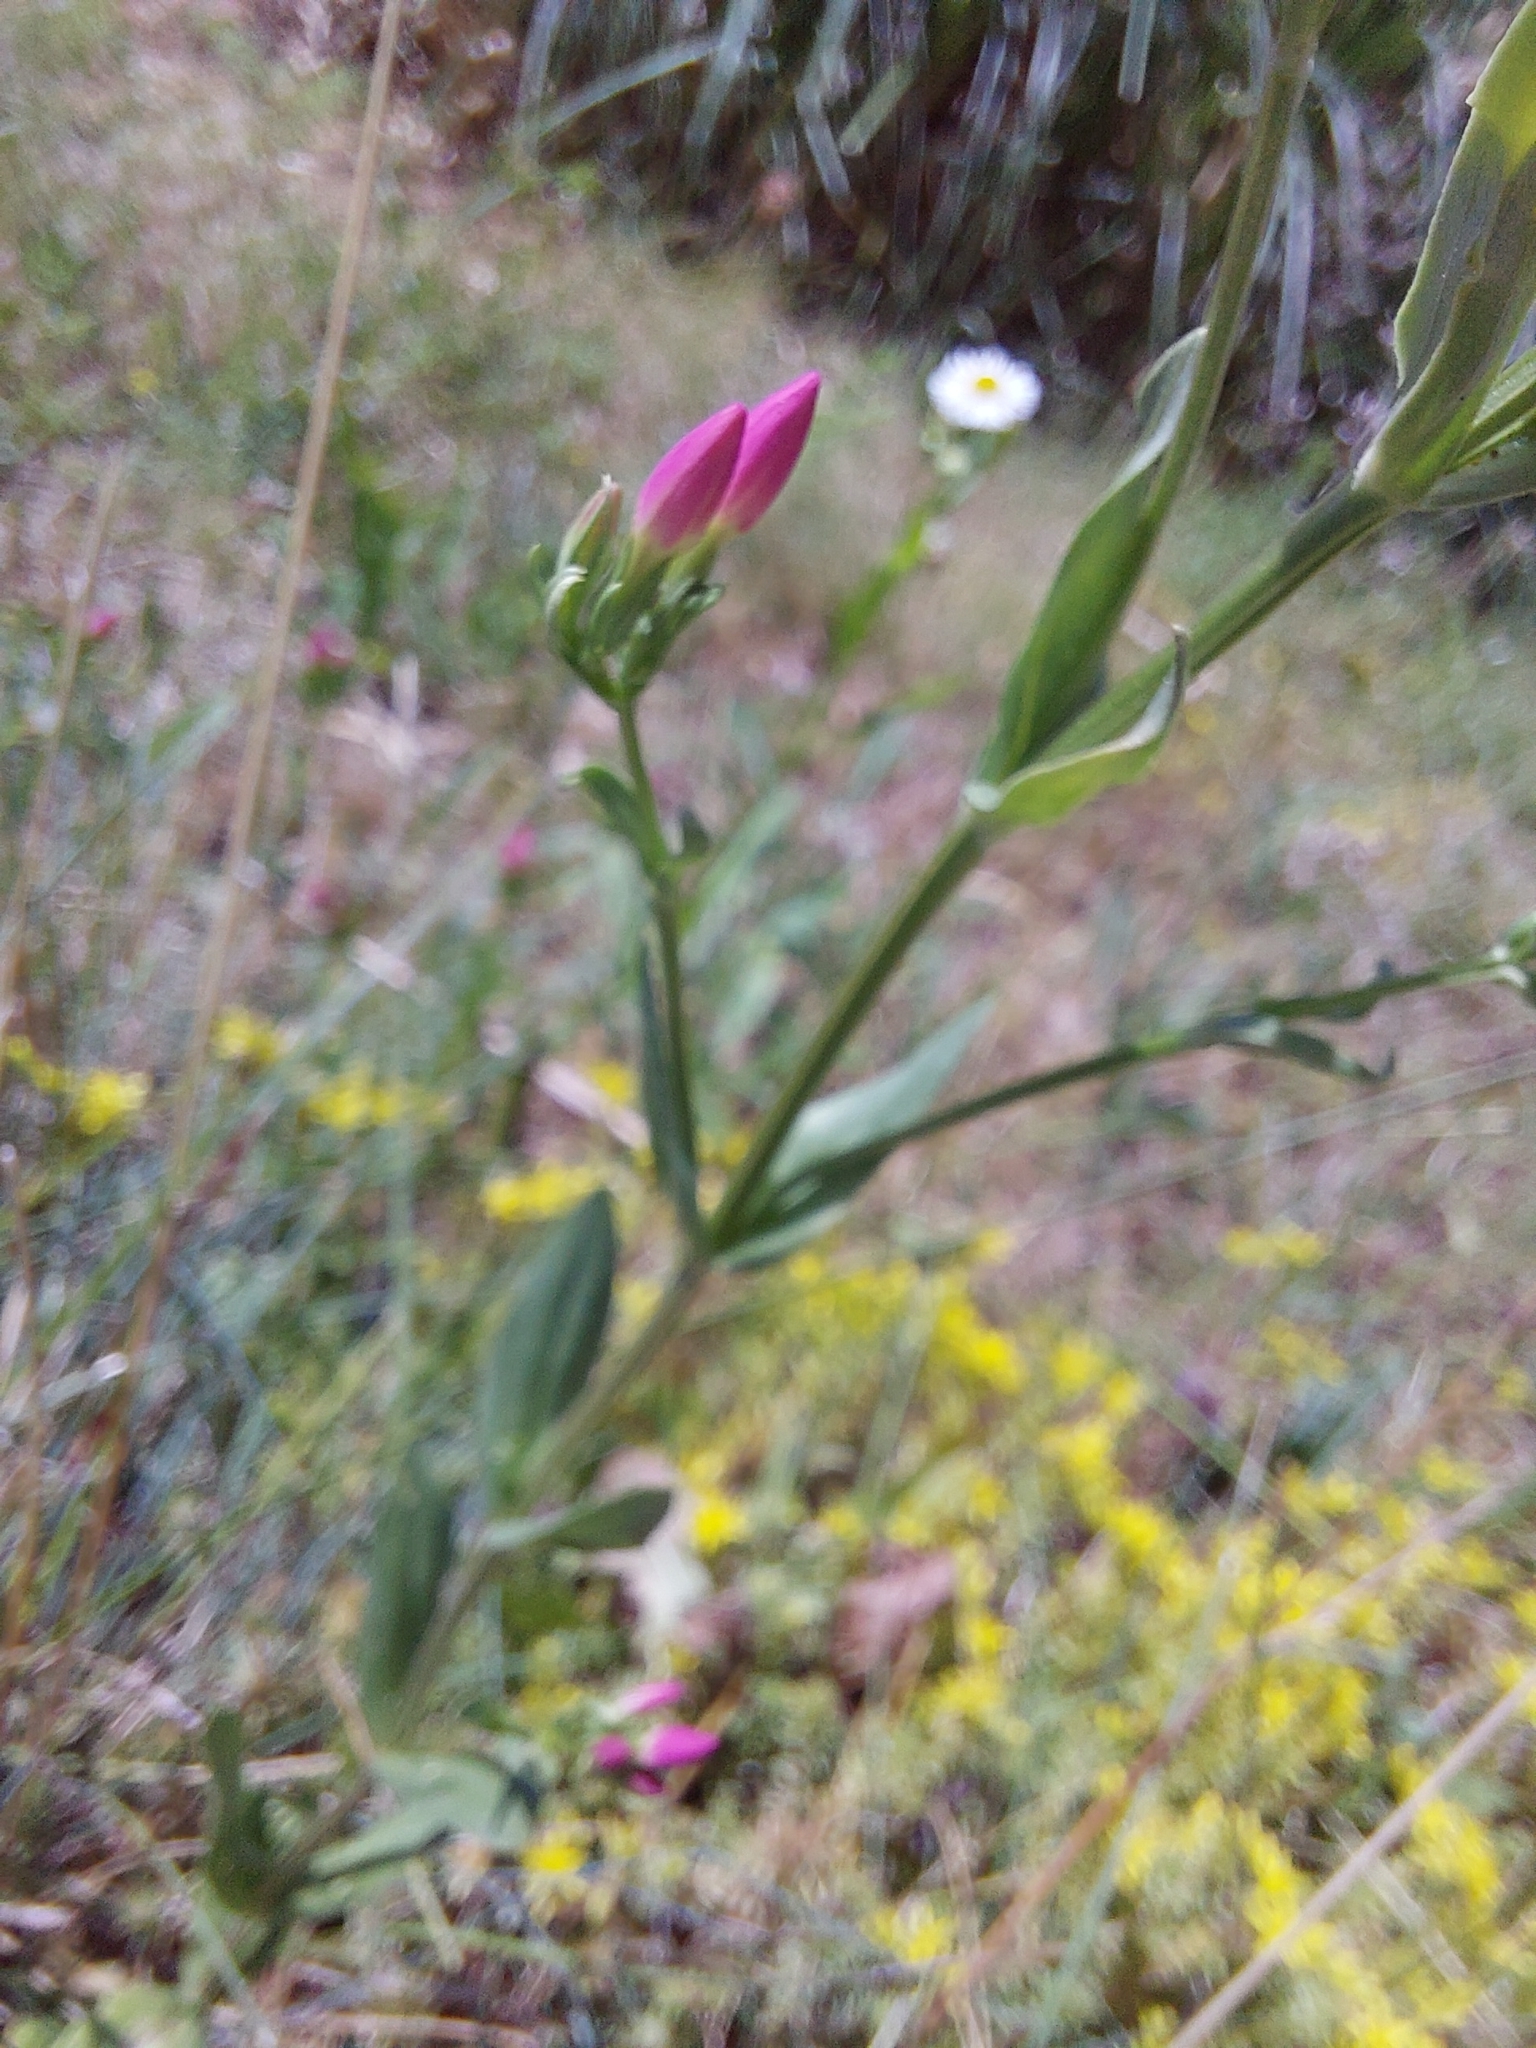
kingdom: Plantae
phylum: Tracheophyta
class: Magnoliopsida
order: Gentianales
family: Gentianaceae
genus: Centaurium
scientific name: Centaurium erythraea
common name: Common centaury
